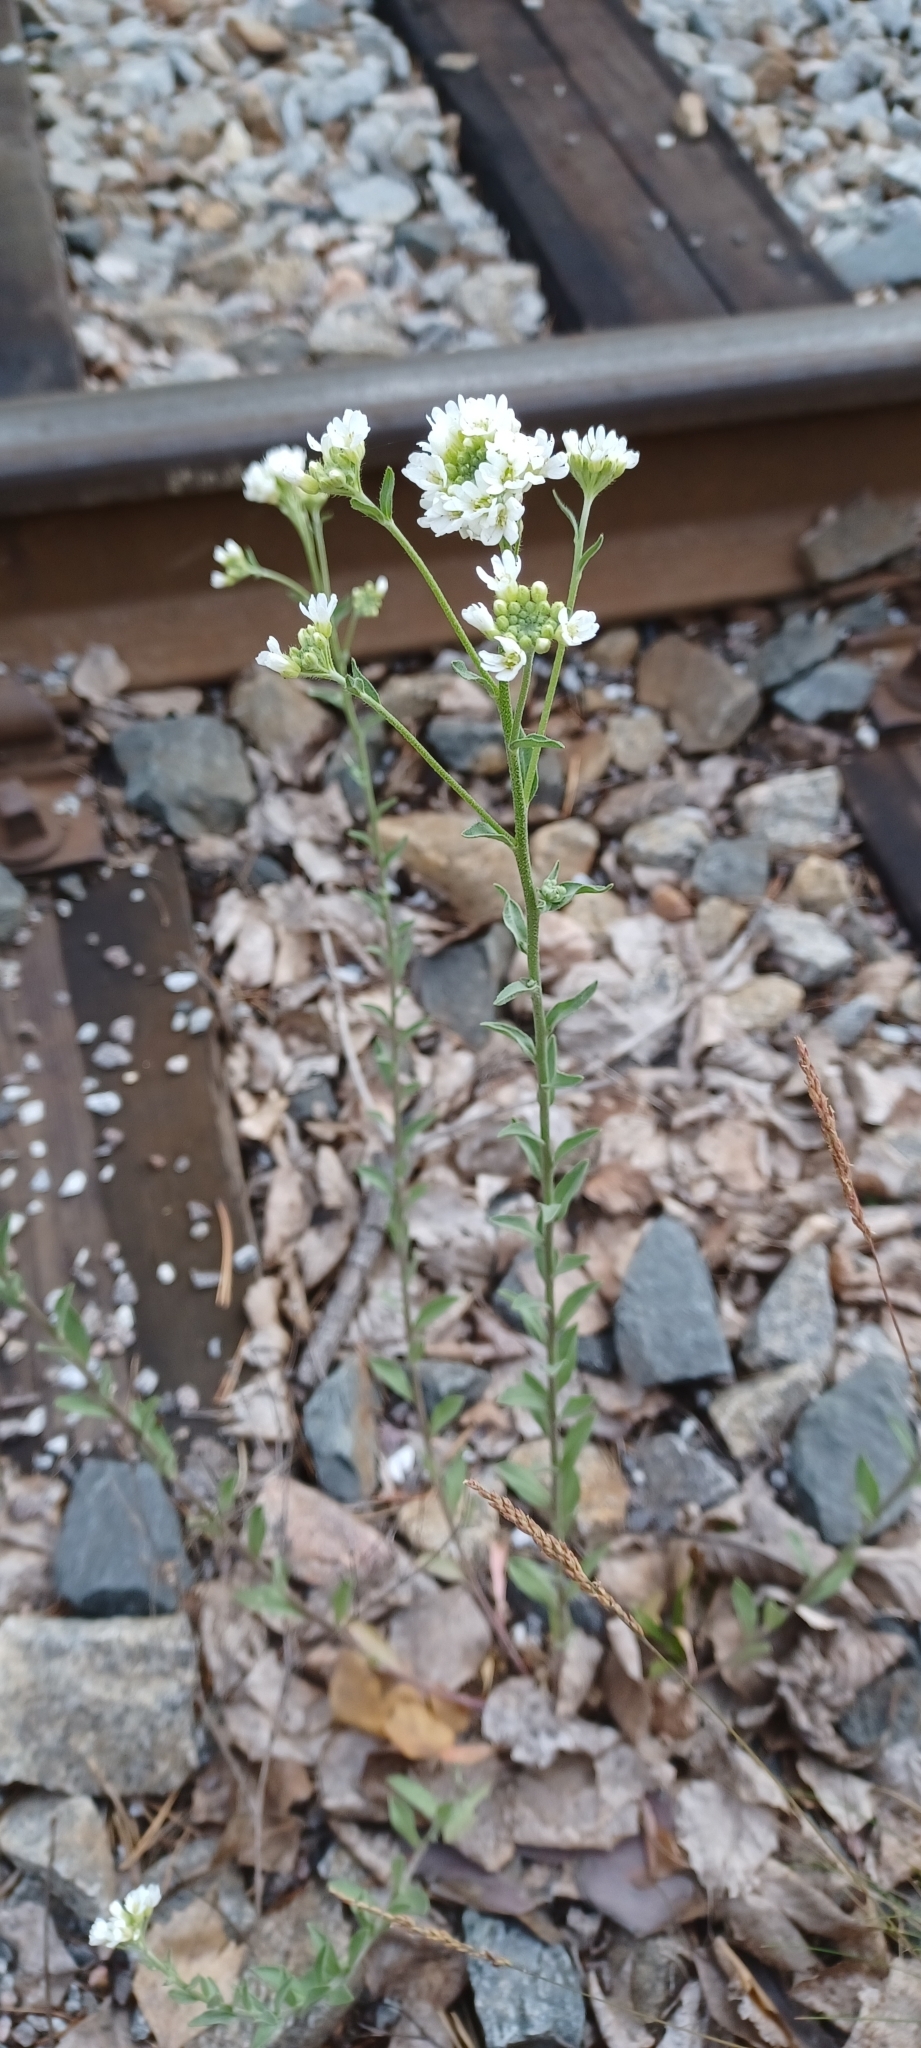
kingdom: Plantae
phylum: Tracheophyta
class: Magnoliopsida
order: Brassicales
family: Brassicaceae
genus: Berteroa
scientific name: Berteroa incana
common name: Hoary alison
